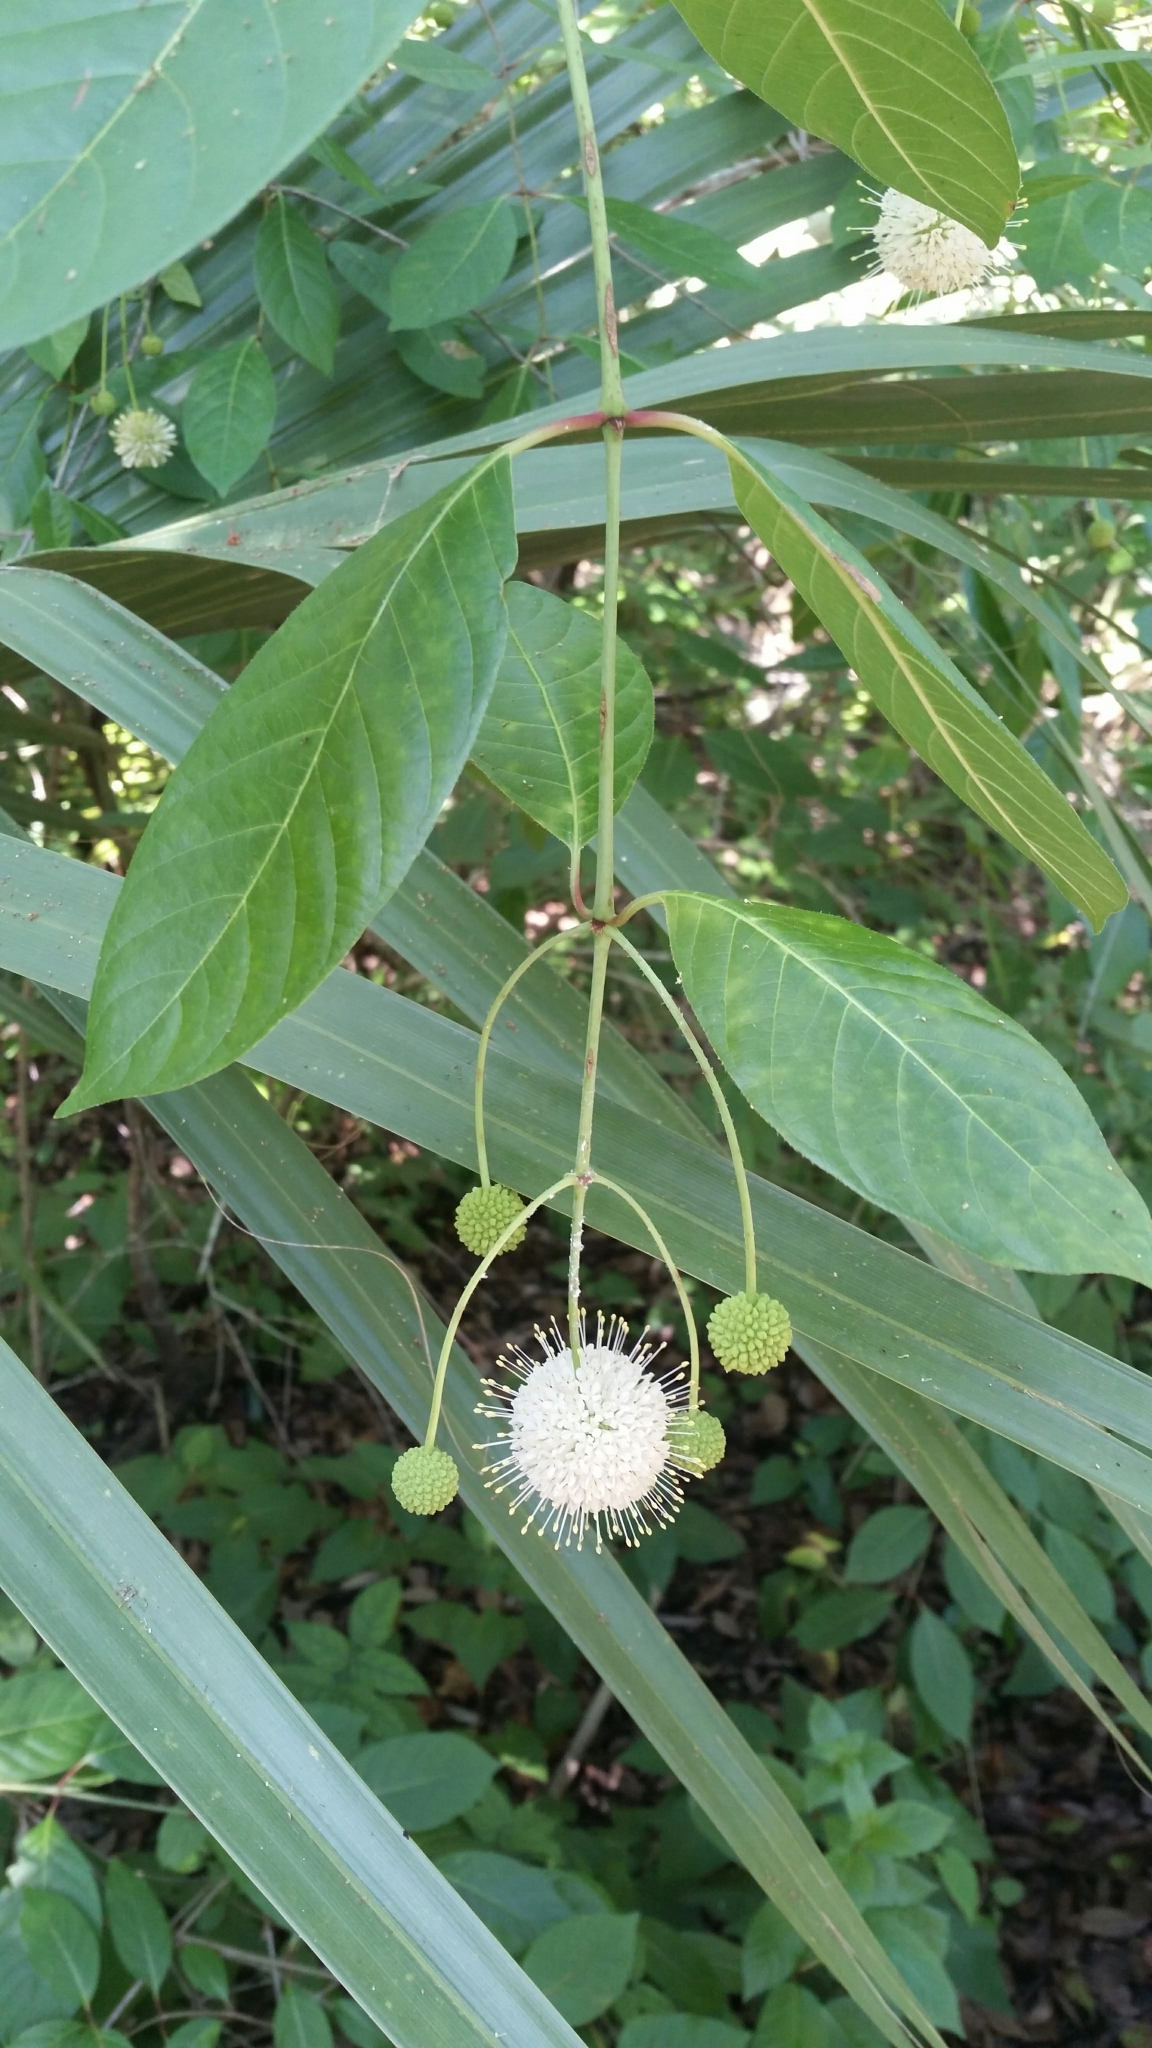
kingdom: Plantae
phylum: Tracheophyta
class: Magnoliopsida
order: Gentianales
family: Rubiaceae
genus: Cephalanthus
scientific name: Cephalanthus occidentalis
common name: Button-willow
